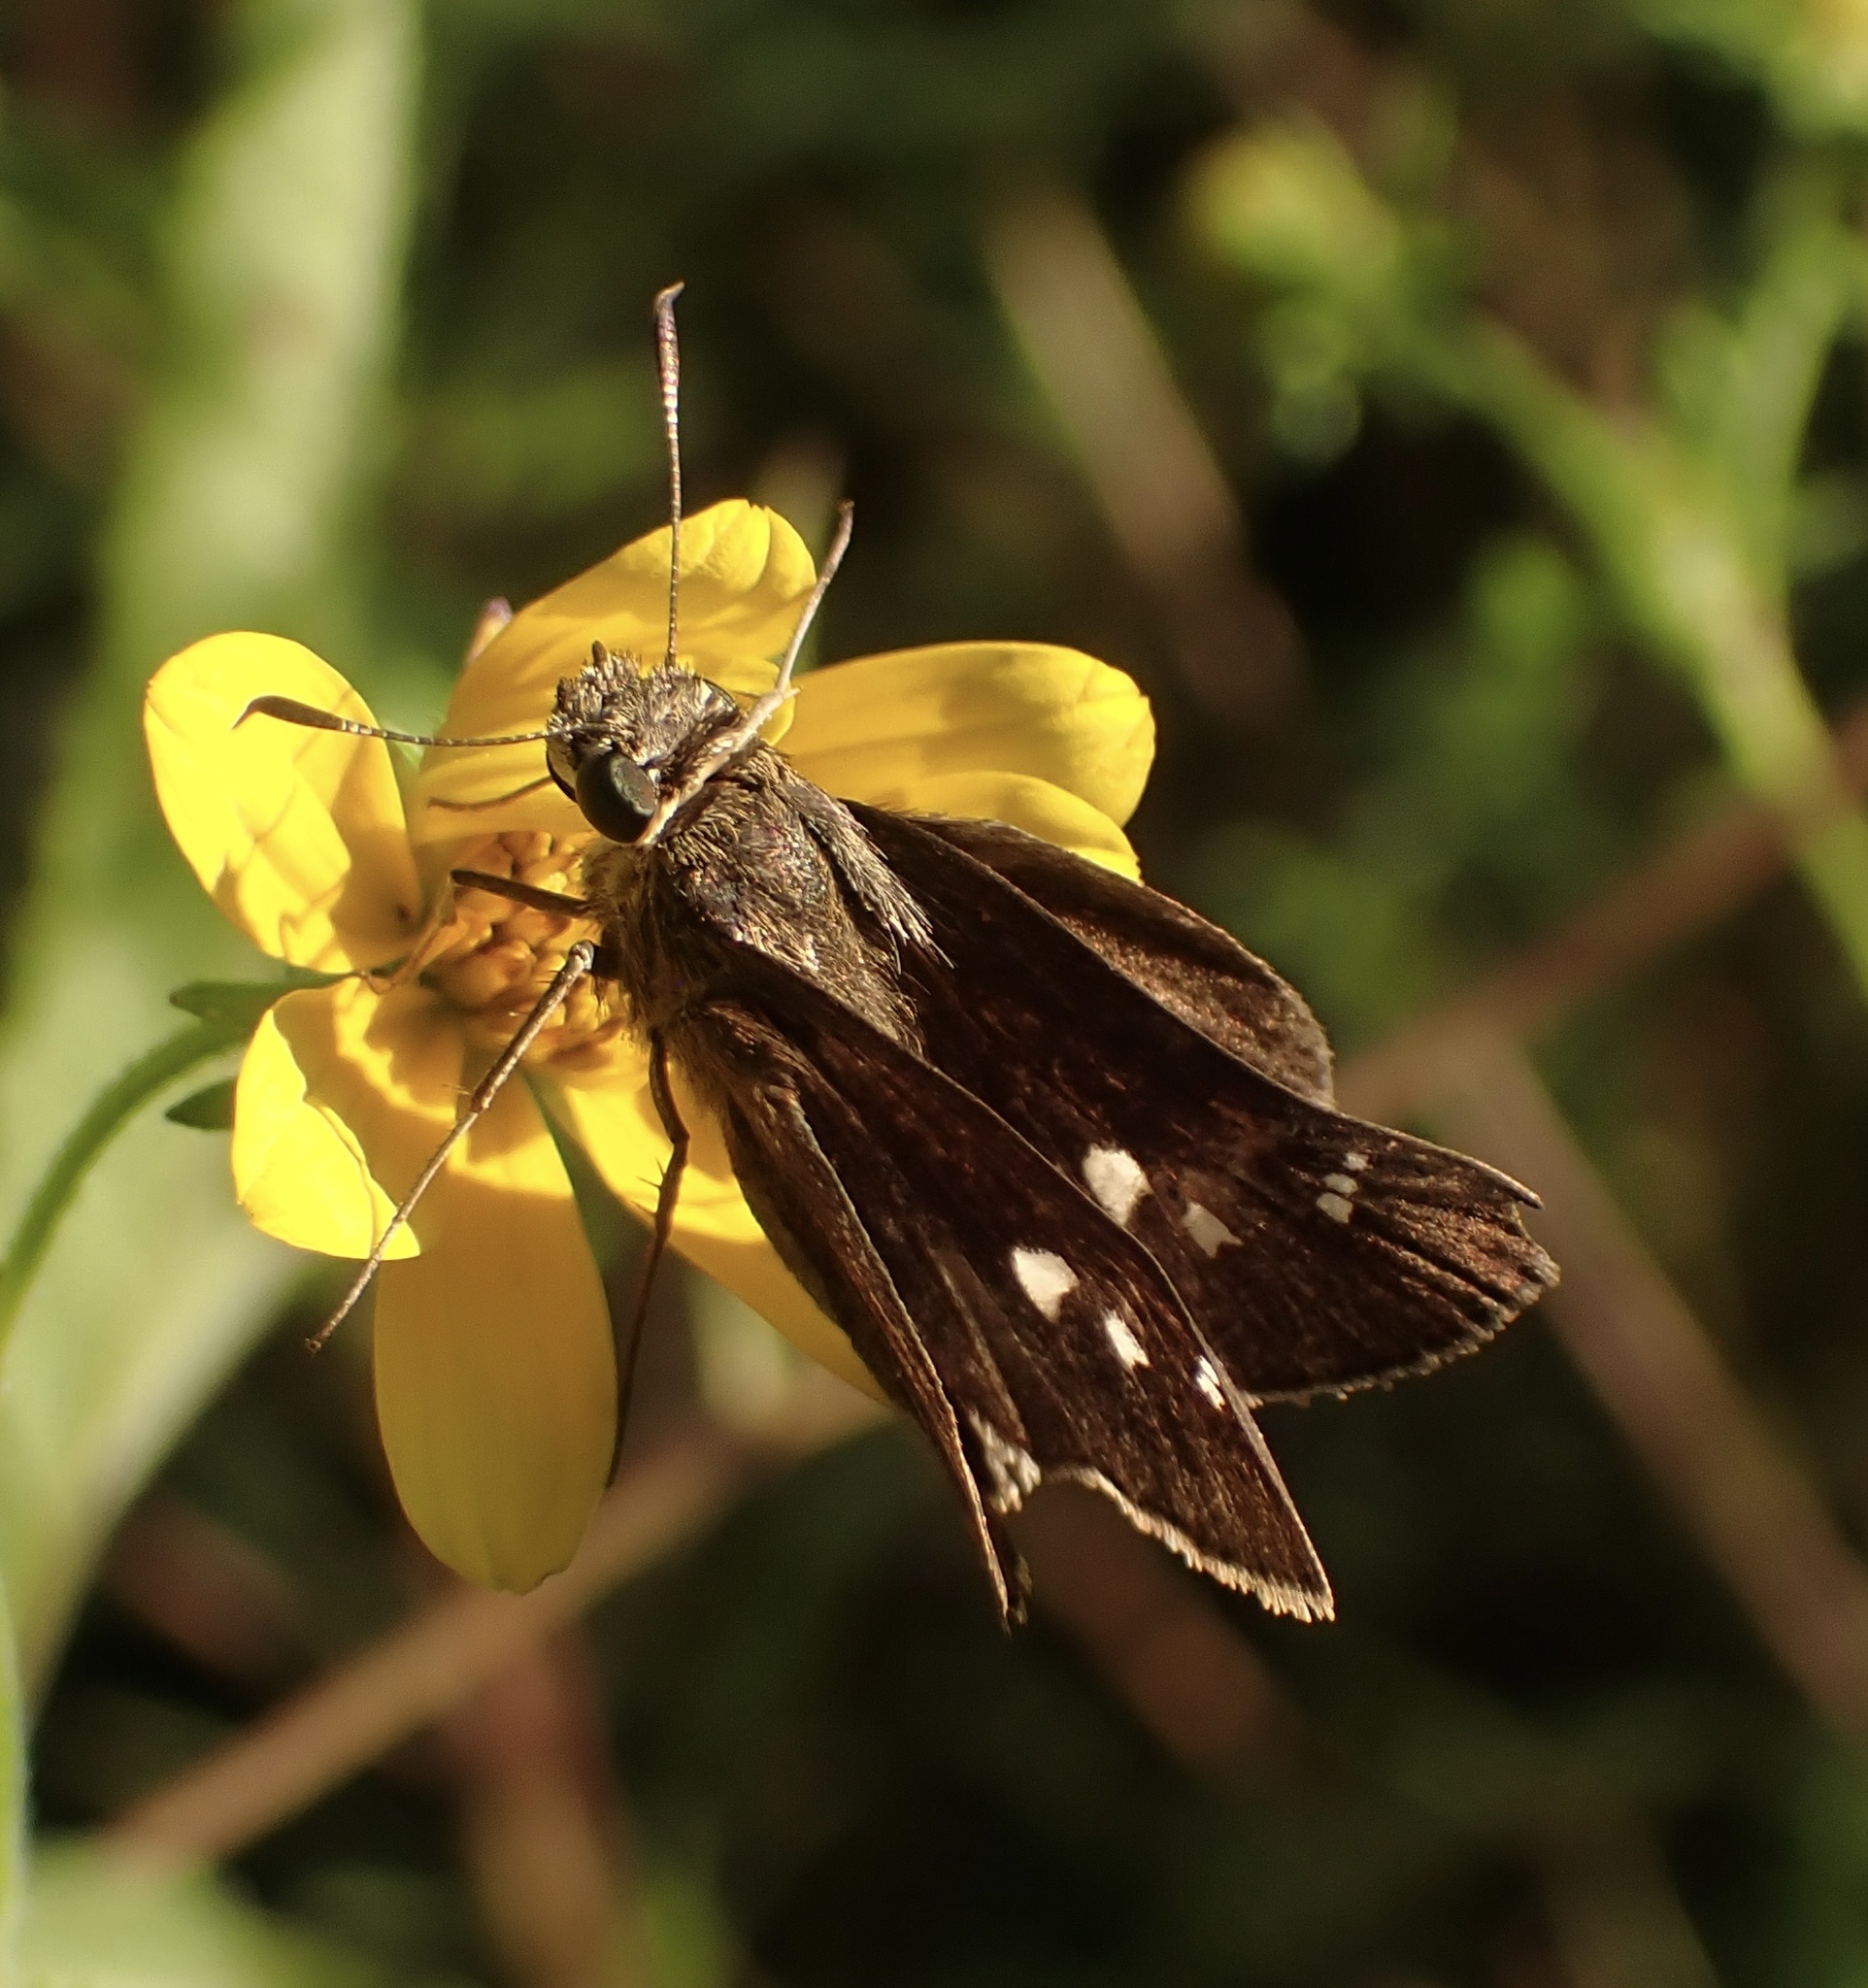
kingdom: Animalia
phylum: Arthropoda
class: Insecta
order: Lepidoptera
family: Hesperiidae
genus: Panoquina
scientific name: Panoquina ocola
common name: Ocola skipper
